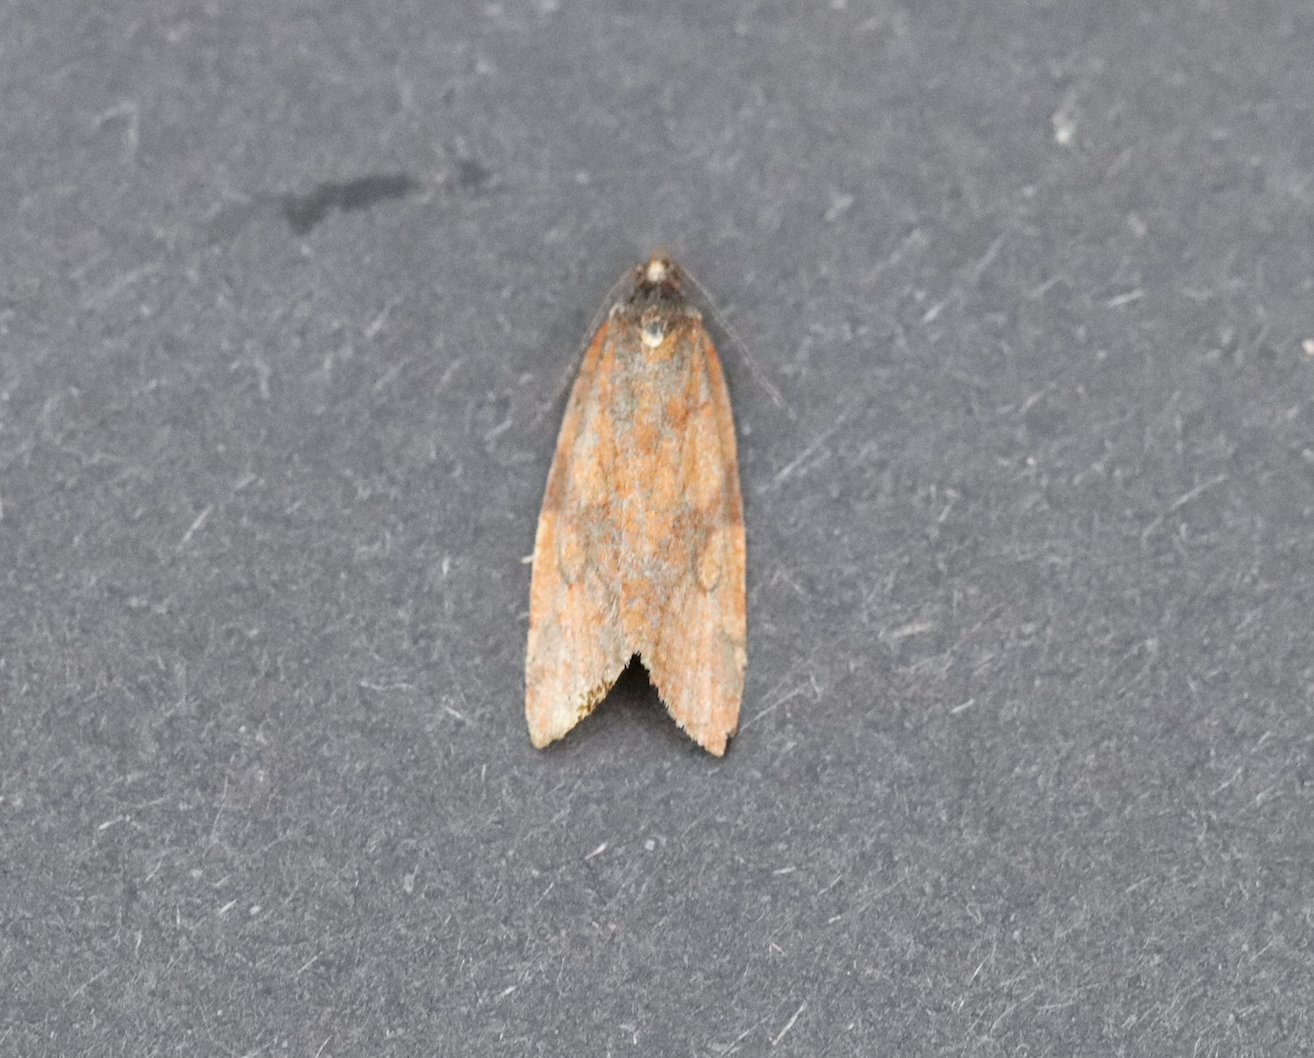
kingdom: Animalia
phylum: Arthropoda
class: Insecta
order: Lepidoptera
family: Tortricidae
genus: Clepsis
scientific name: Clepsis moeschleriana
